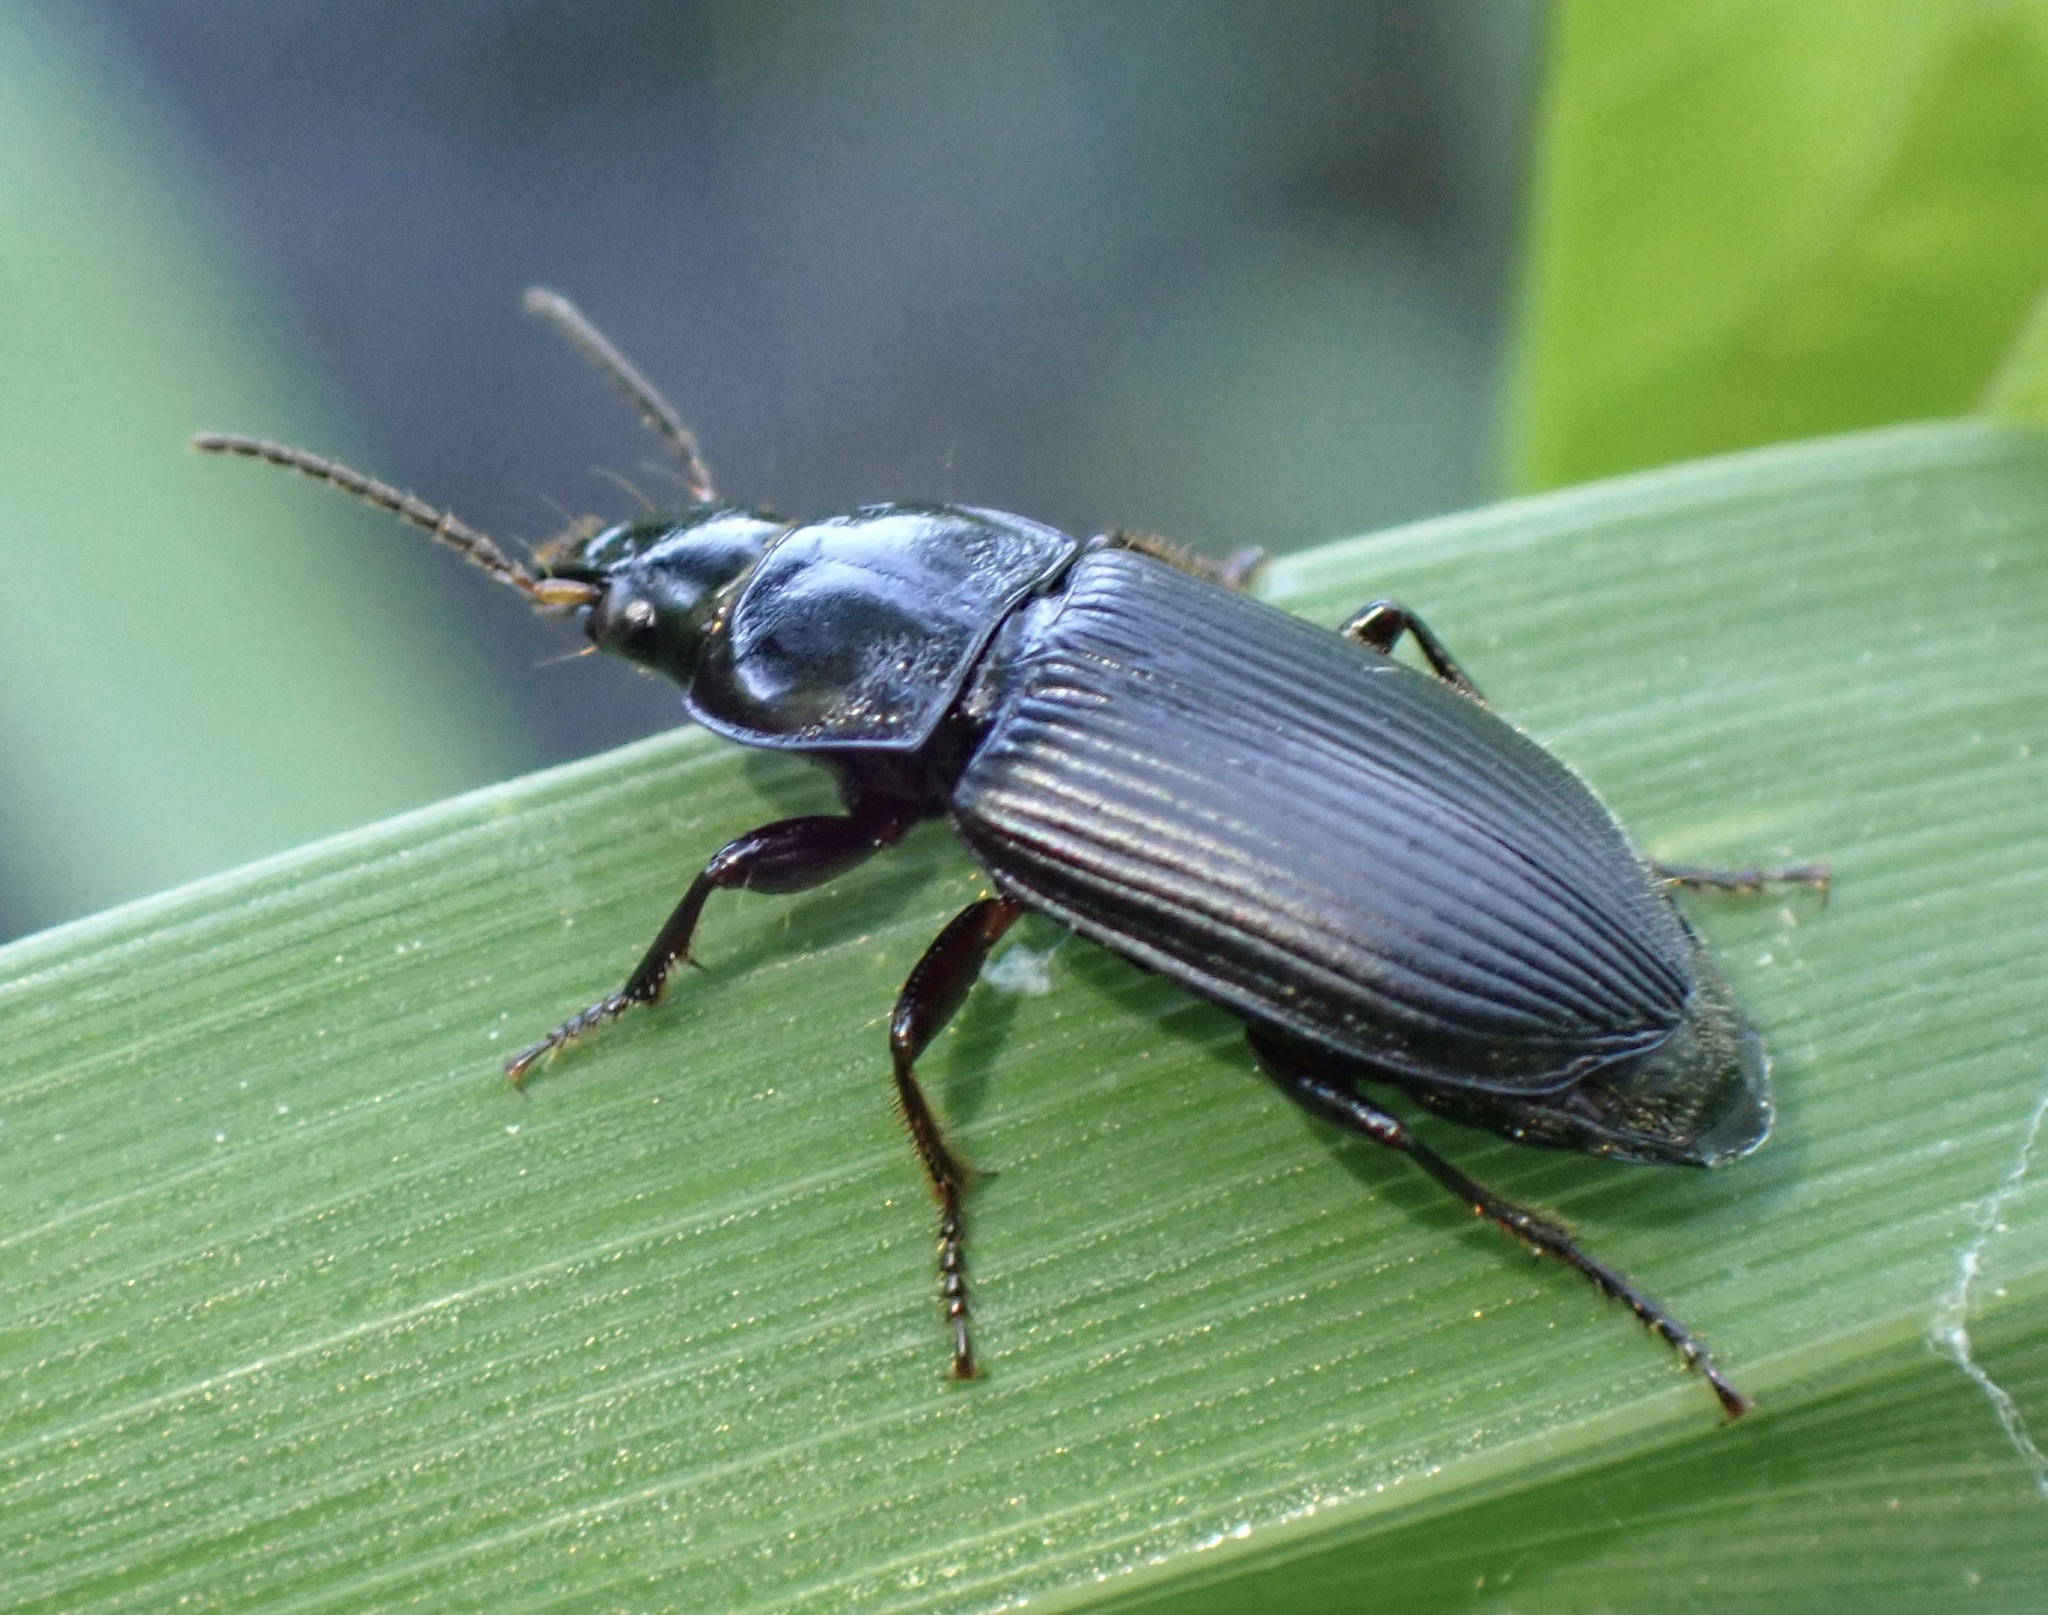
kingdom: Animalia
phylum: Arthropoda
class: Insecta
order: Coleoptera
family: Carabidae
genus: Anisodactylus
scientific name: Anisodactylus binotatus
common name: Two-marked harp ground beetle
